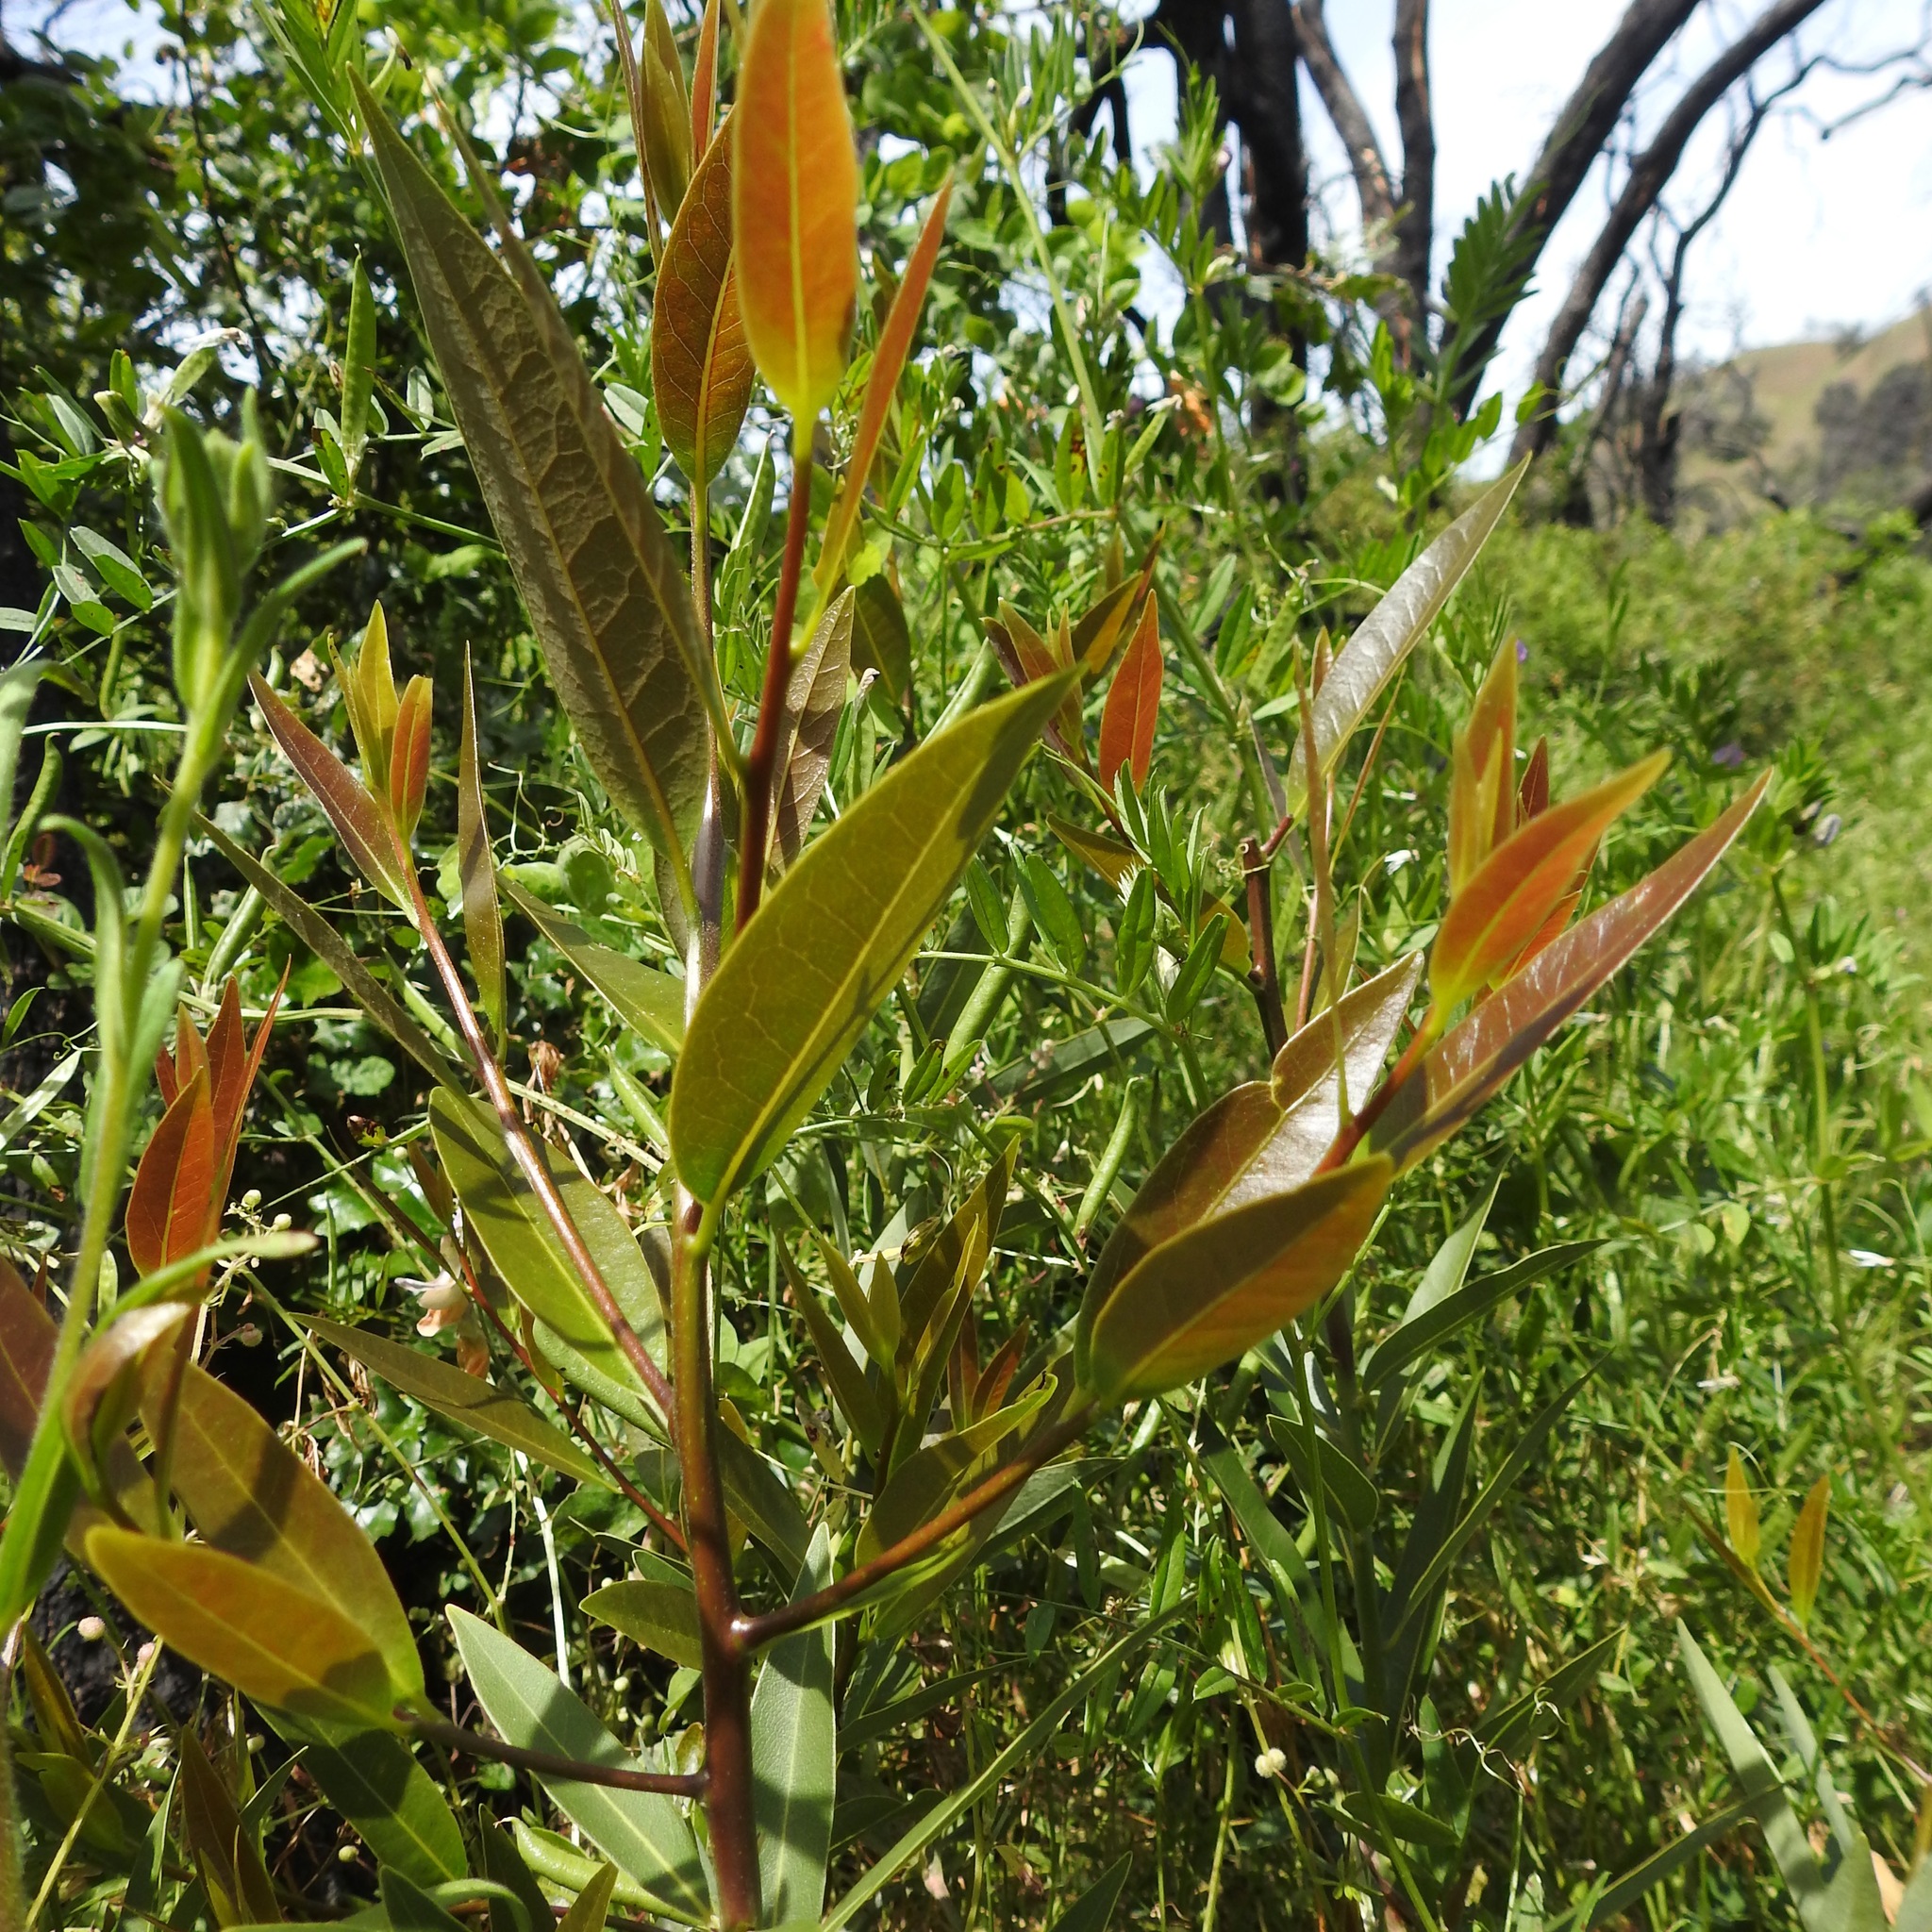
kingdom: Plantae
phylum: Tracheophyta
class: Magnoliopsida
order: Laurales
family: Lauraceae
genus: Umbellularia
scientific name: Umbellularia californica
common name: California bay
